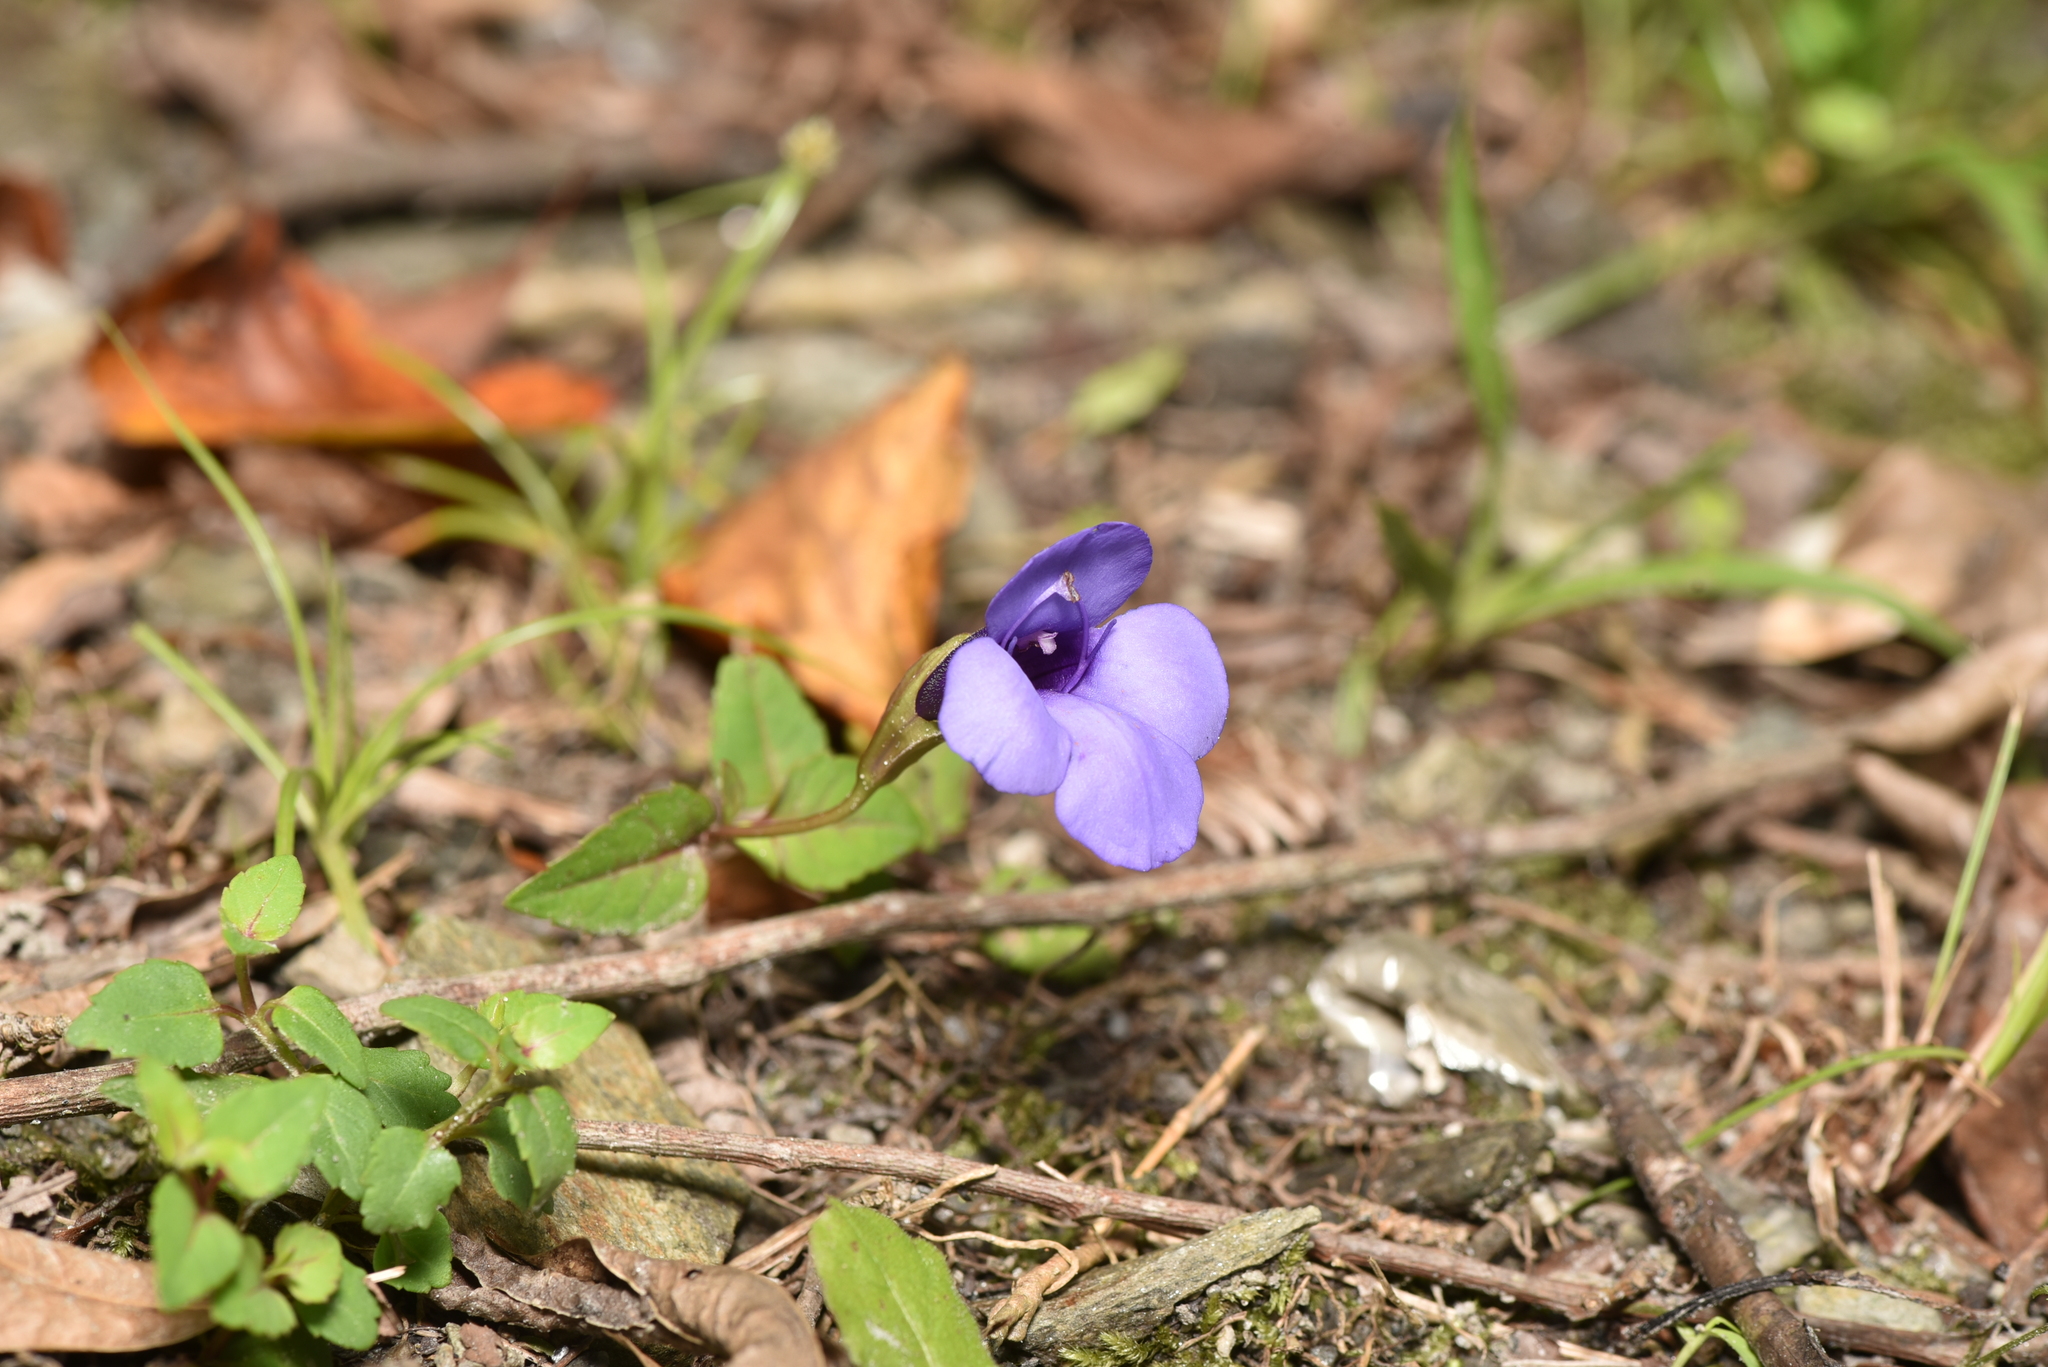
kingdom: Plantae
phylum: Tracheophyta
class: Magnoliopsida
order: Lamiales
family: Linderniaceae
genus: Torenia
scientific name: Torenia concolor
